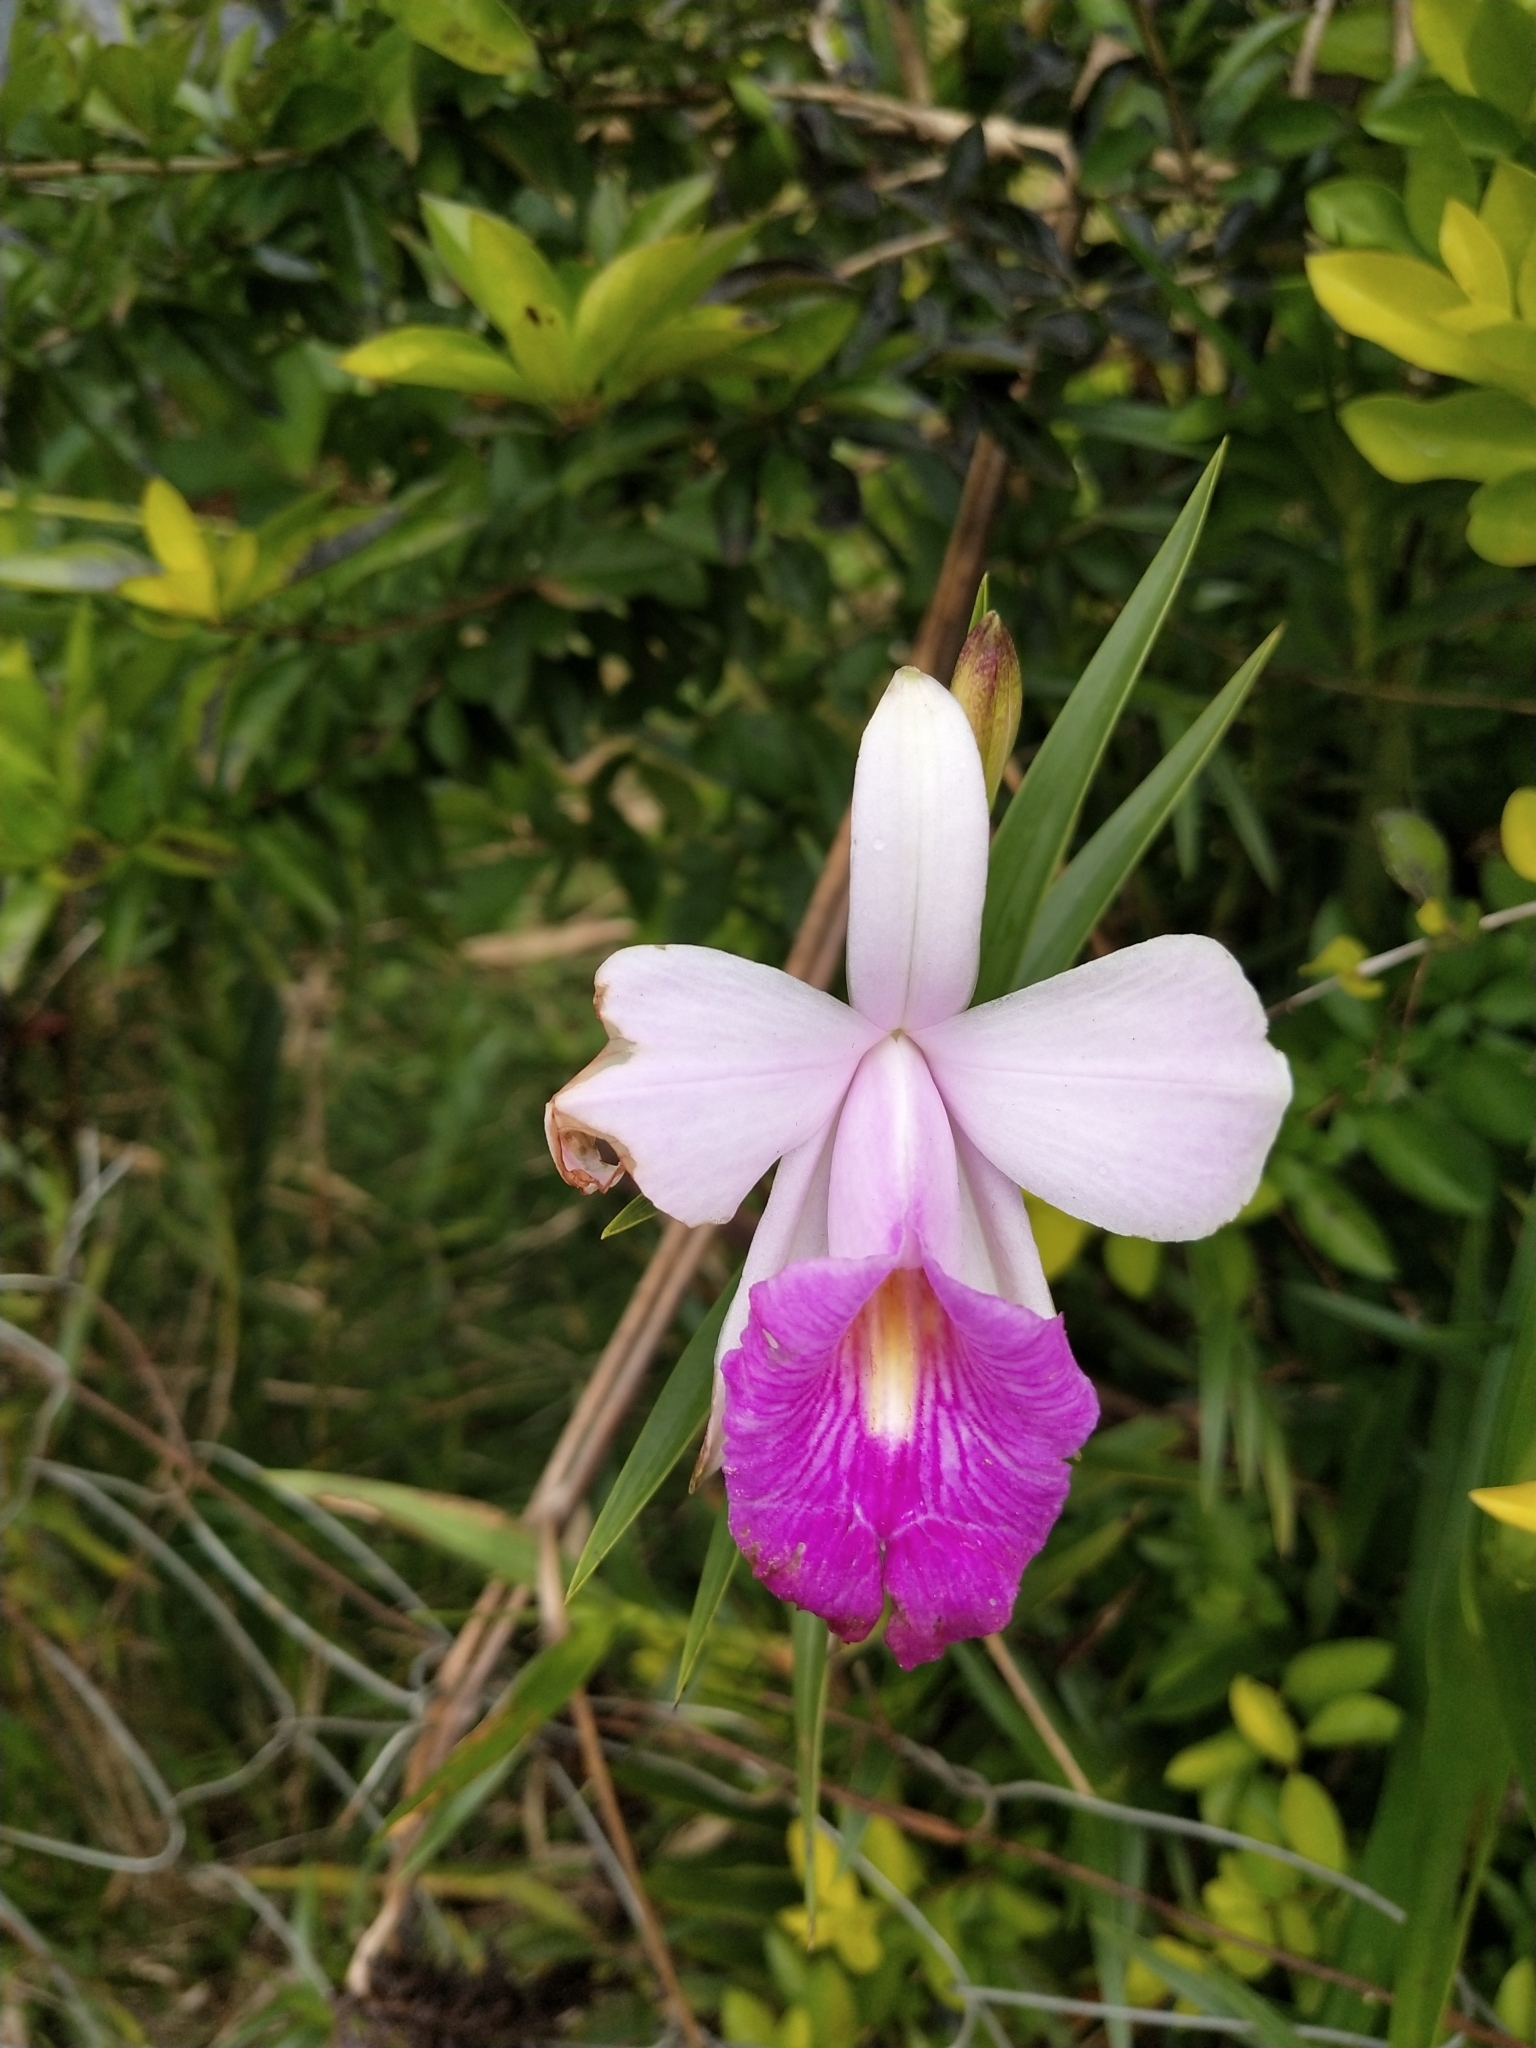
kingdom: Plantae
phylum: Tracheophyta
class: Liliopsida
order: Asparagales
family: Orchidaceae
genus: Arundina
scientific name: Arundina graminifolia
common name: Bamboo orchid
